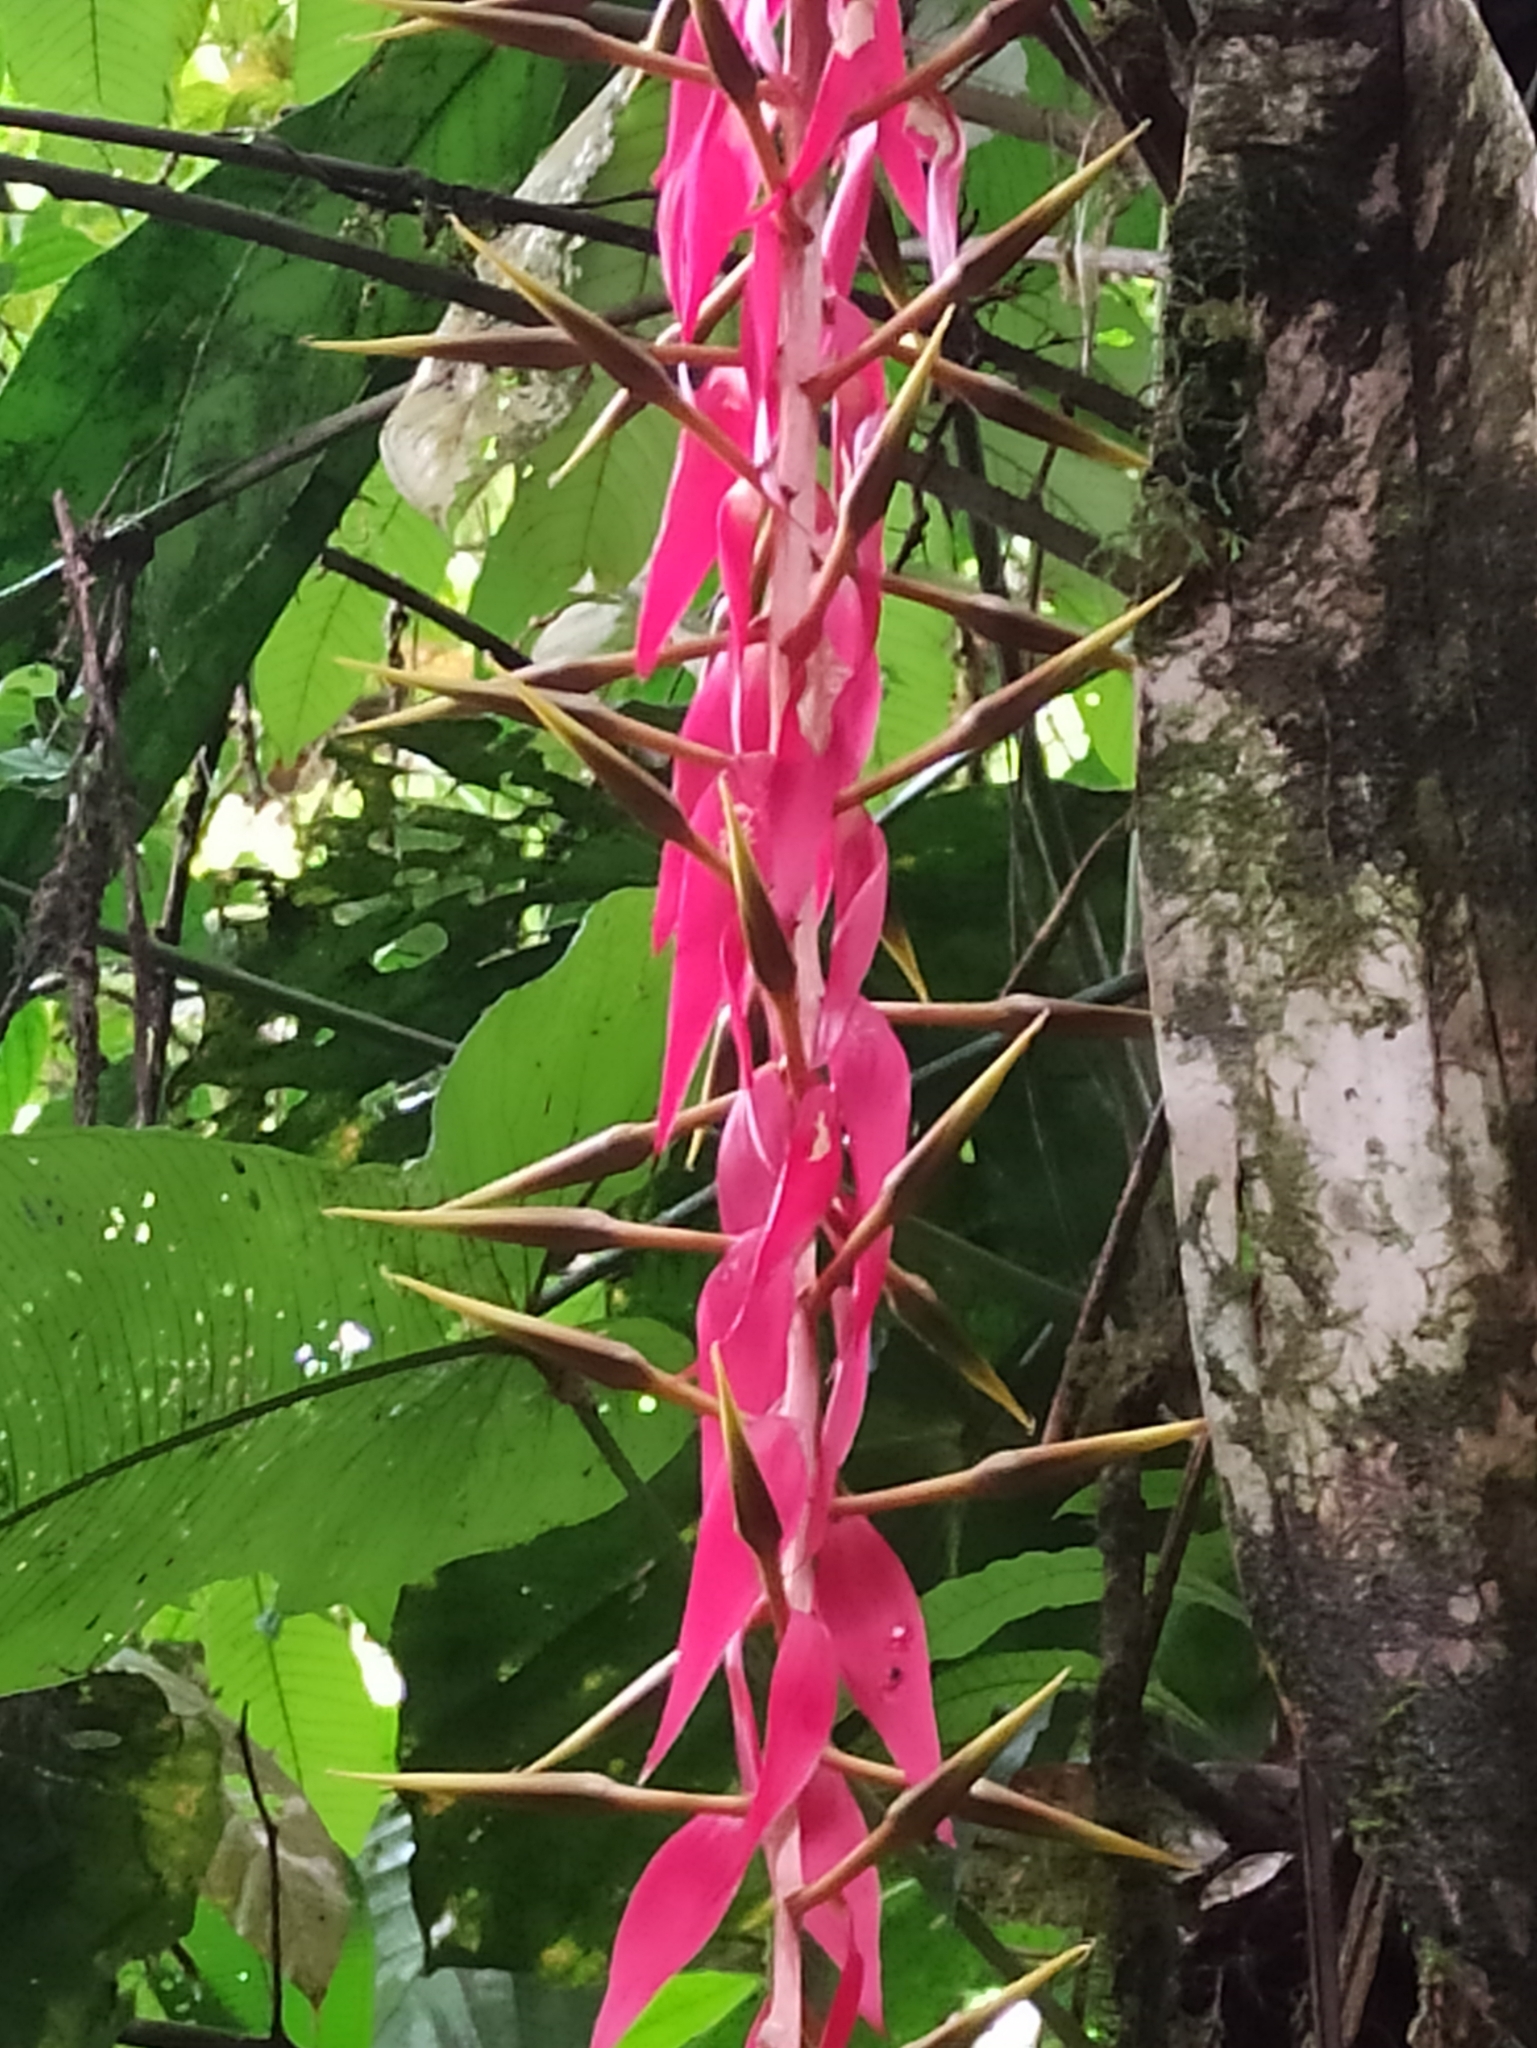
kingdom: Plantae
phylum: Tracheophyta
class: Liliopsida
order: Poales
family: Bromeliaceae
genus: Pitcairnia
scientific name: Pitcairnia stevensonii
